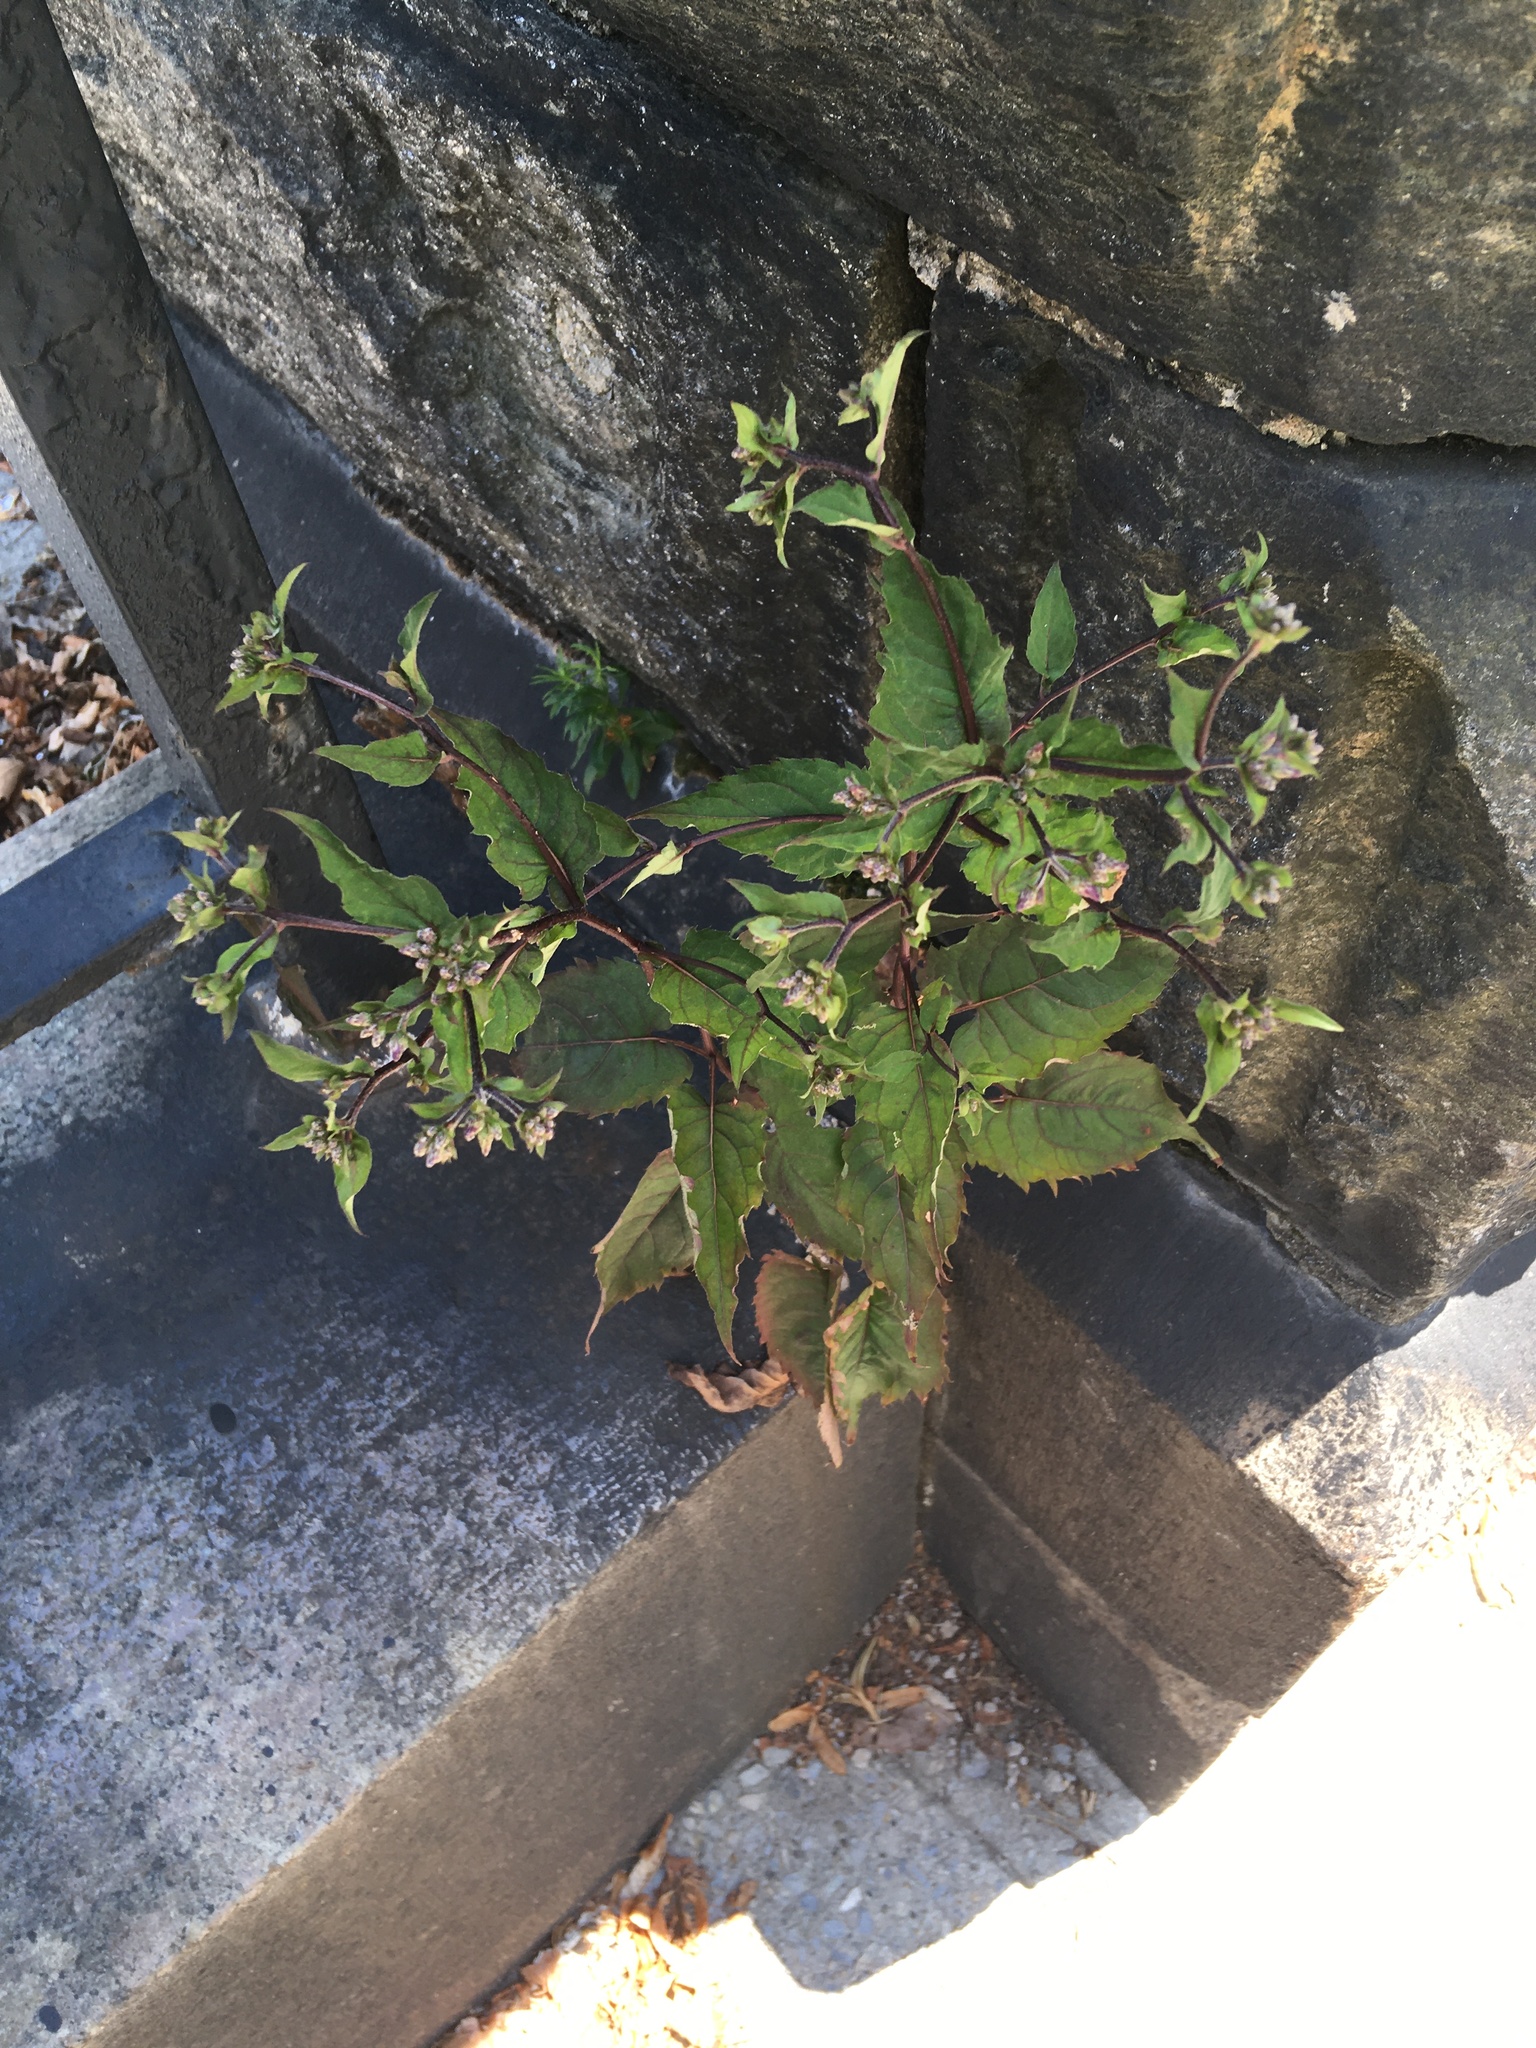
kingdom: Plantae
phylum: Tracheophyta
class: Magnoliopsida
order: Asterales
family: Asteraceae
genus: Eurybia
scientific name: Eurybia divaricata
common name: White wood aster
